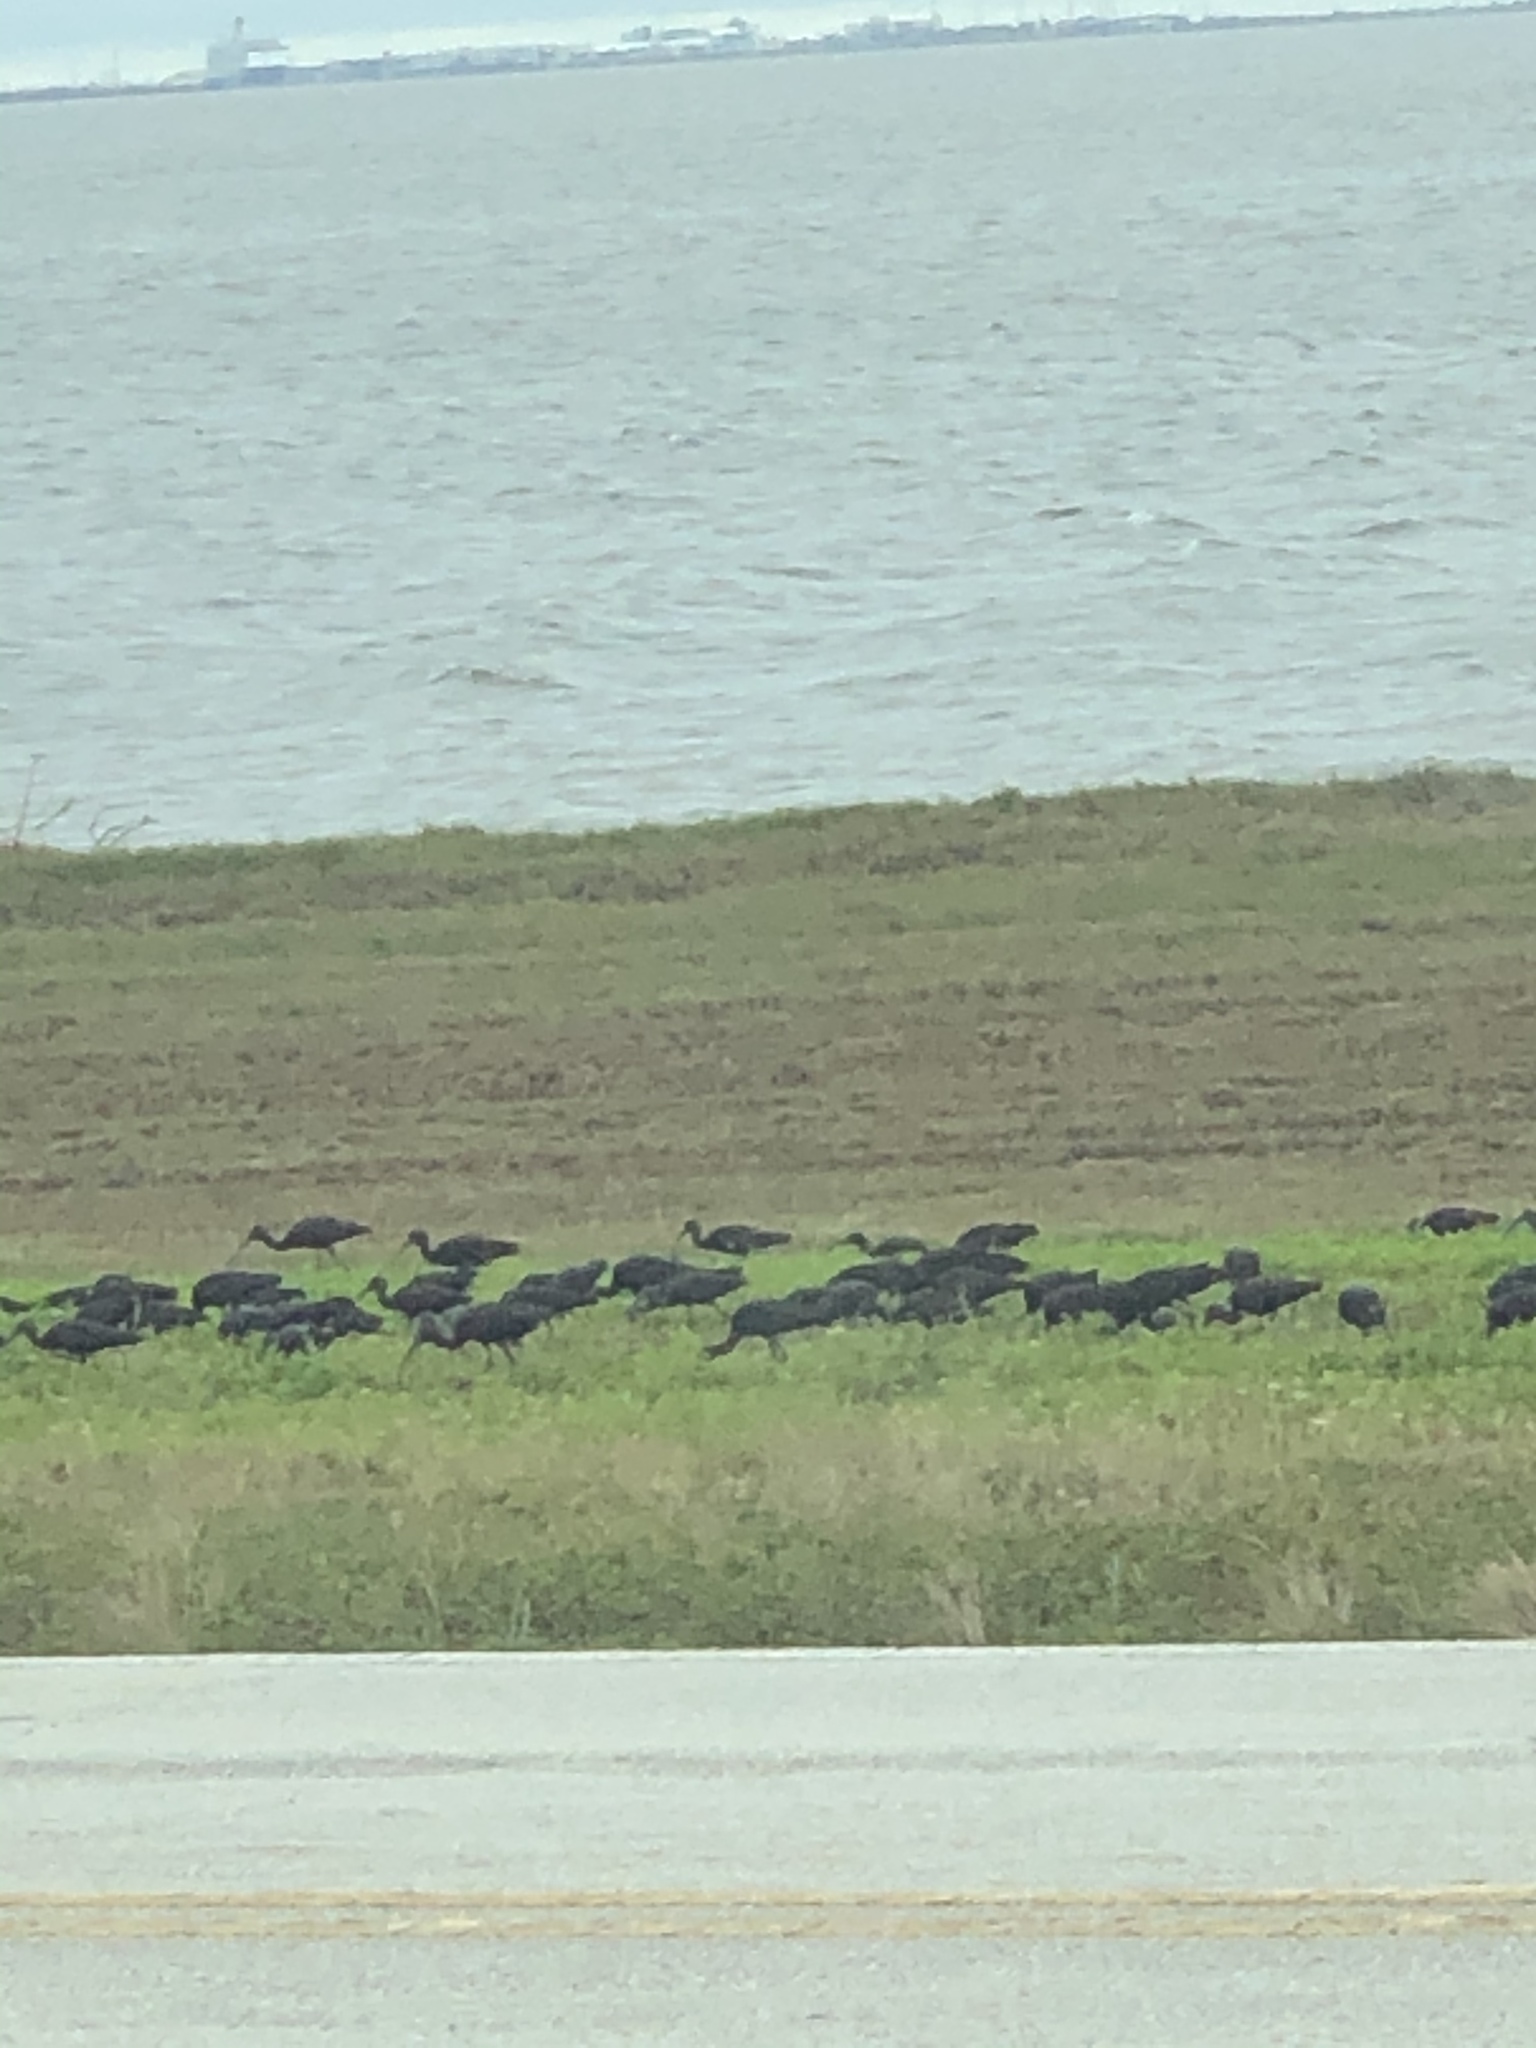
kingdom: Animalia
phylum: Chordata
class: Aves
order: Pelecaniformes
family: Threskiornithidae
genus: Plegadis
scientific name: Plegadis falcinellus
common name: Glossy ibis
